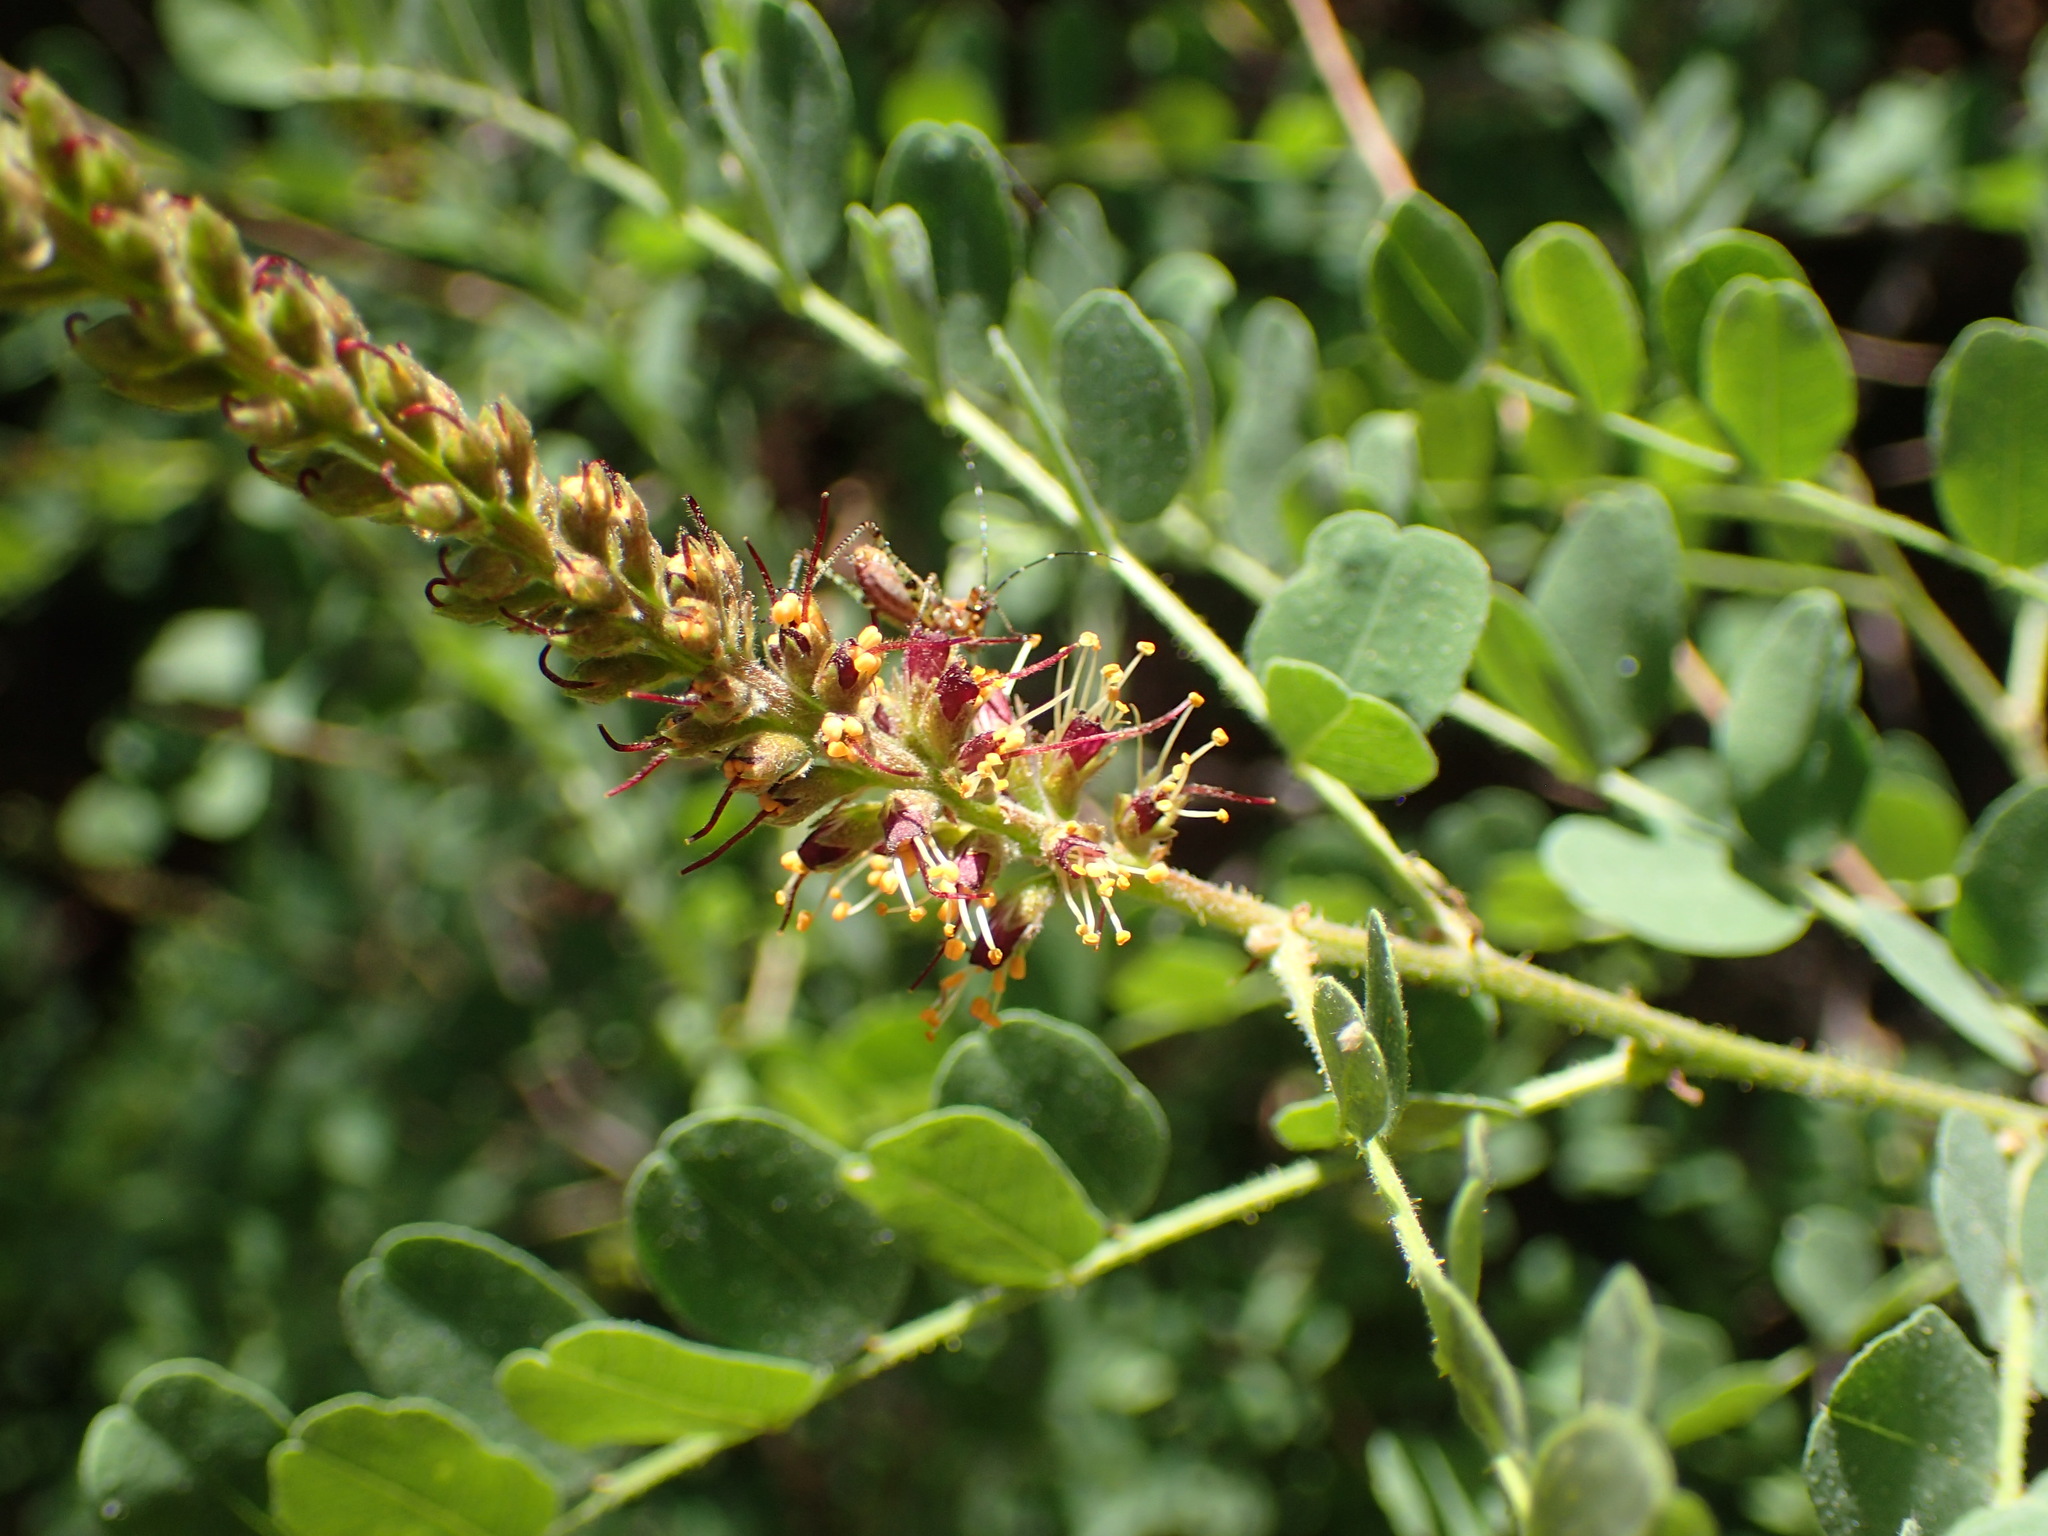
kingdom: Plantae
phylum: Tracheophyta
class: Magnoliopsida
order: Fabales
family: Fabaceae
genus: Amorpha
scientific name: Amorpha californica
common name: California indigobush
